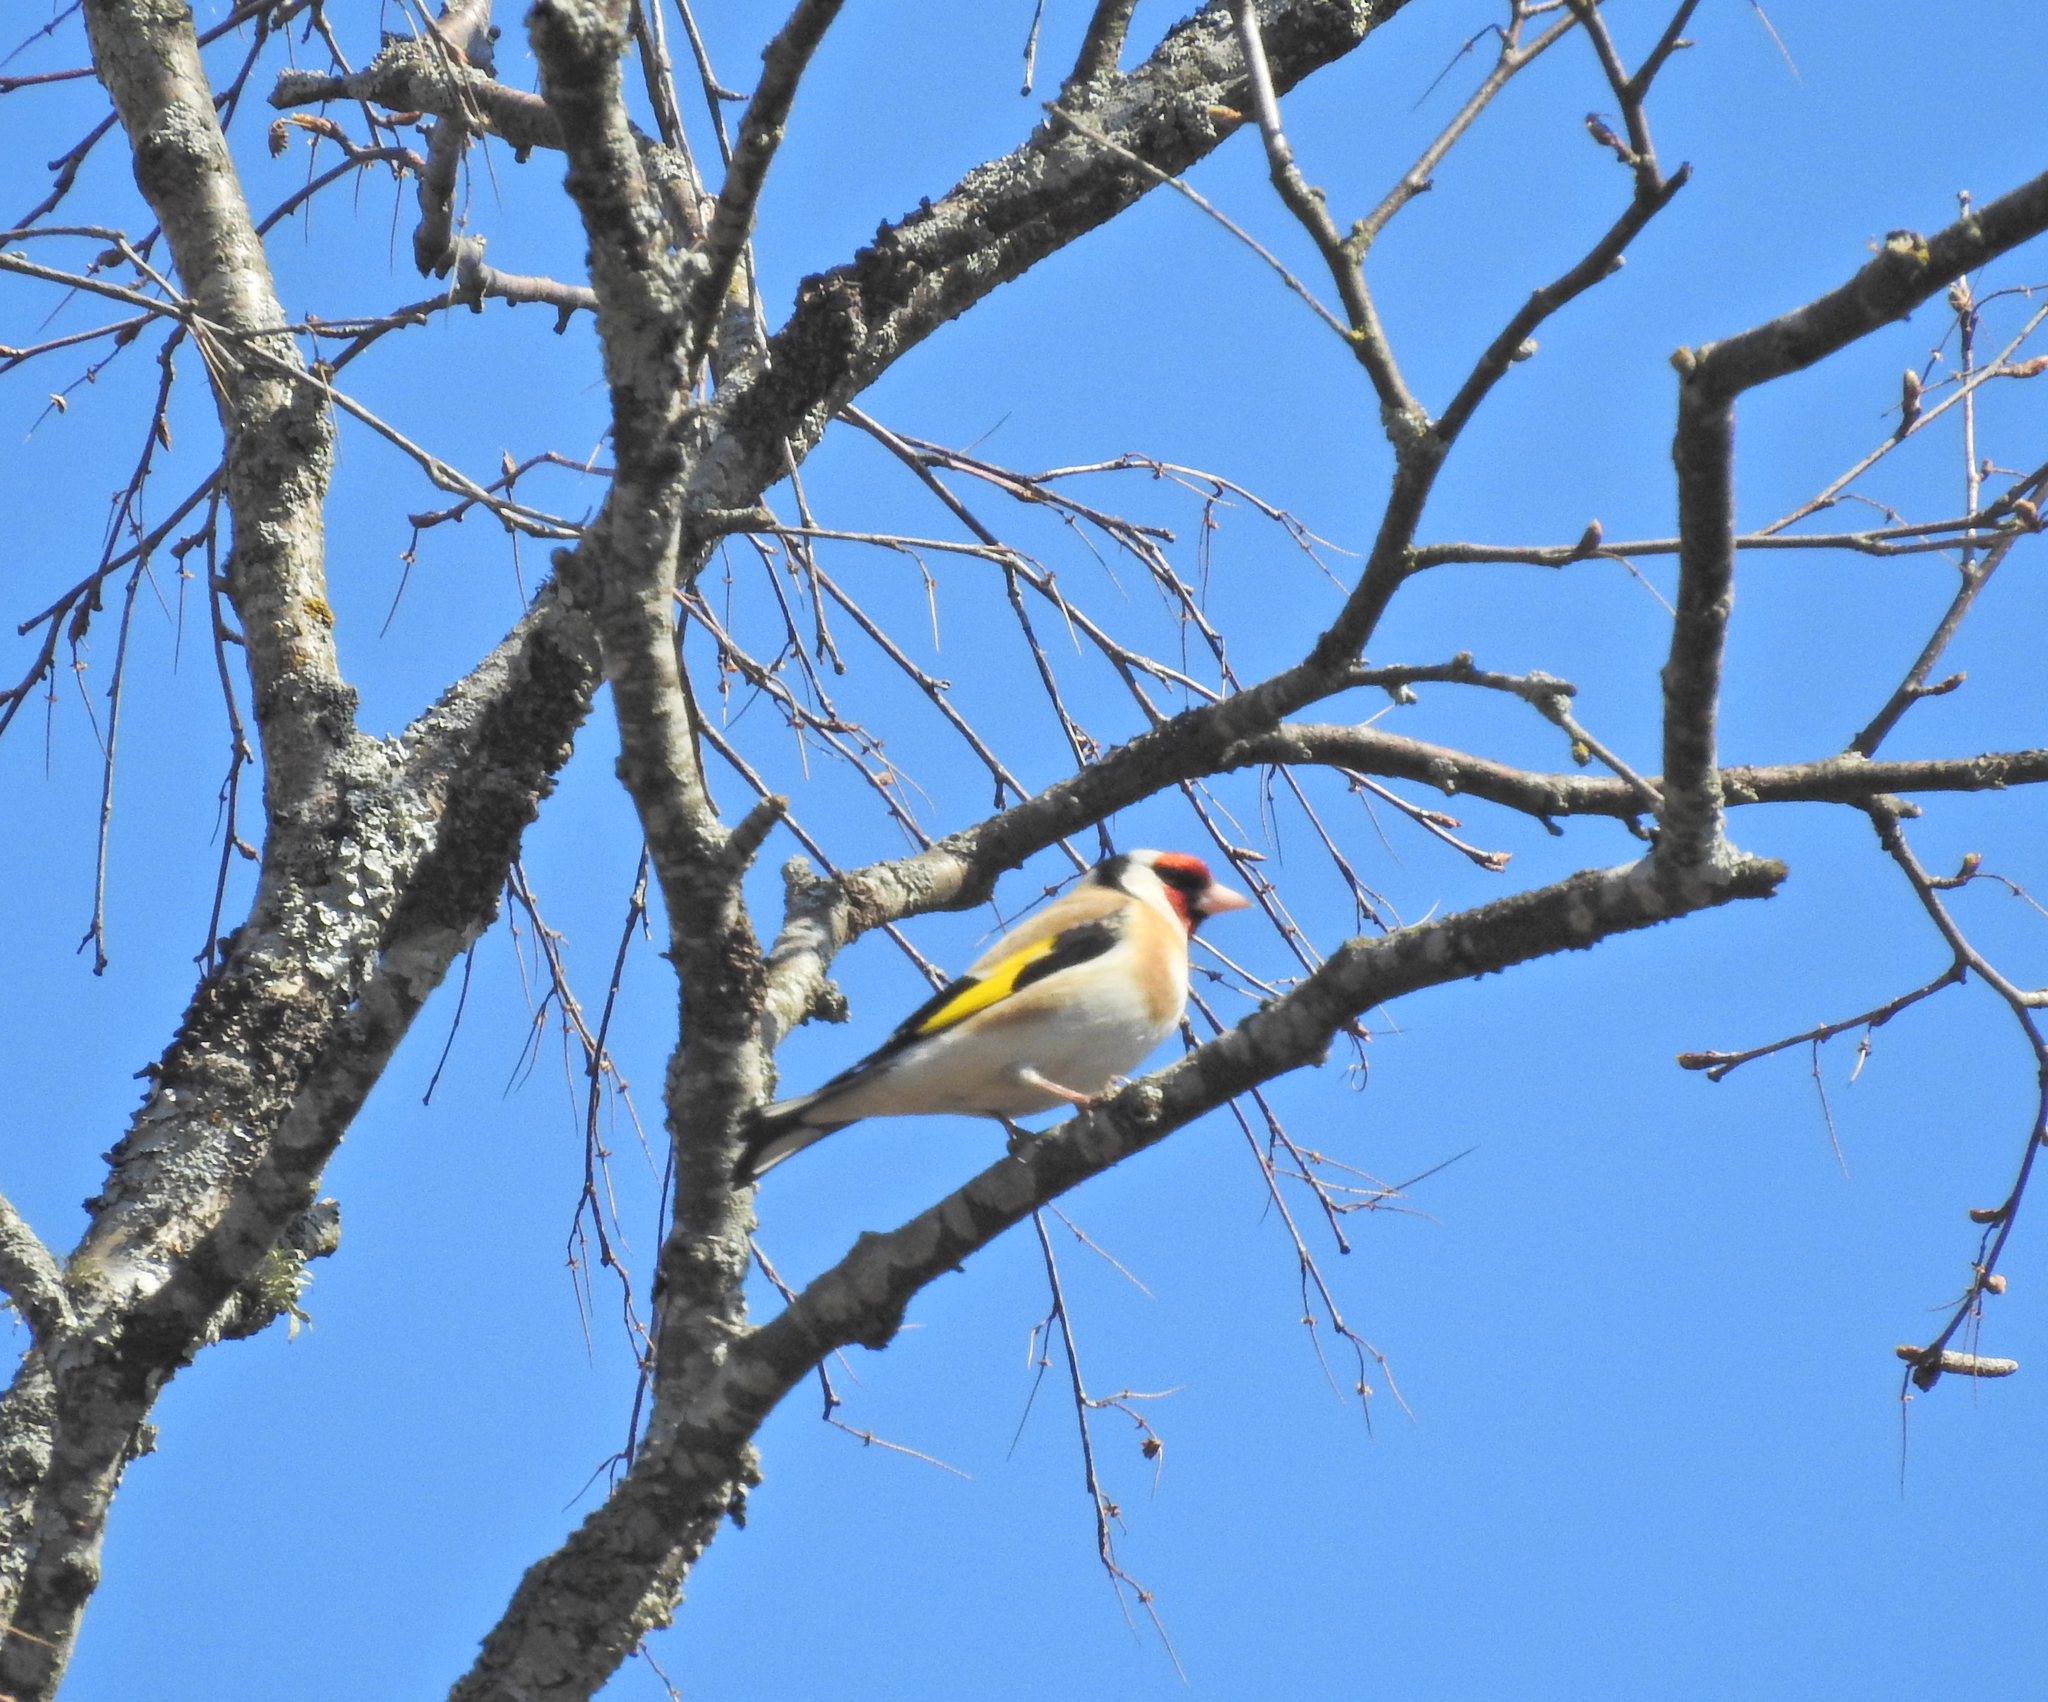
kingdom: Animalia
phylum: Chordata
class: Aves
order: Passeriformes
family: Fringillidae
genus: Carduelis
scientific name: Carduelis carduelis
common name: European goldfinch
